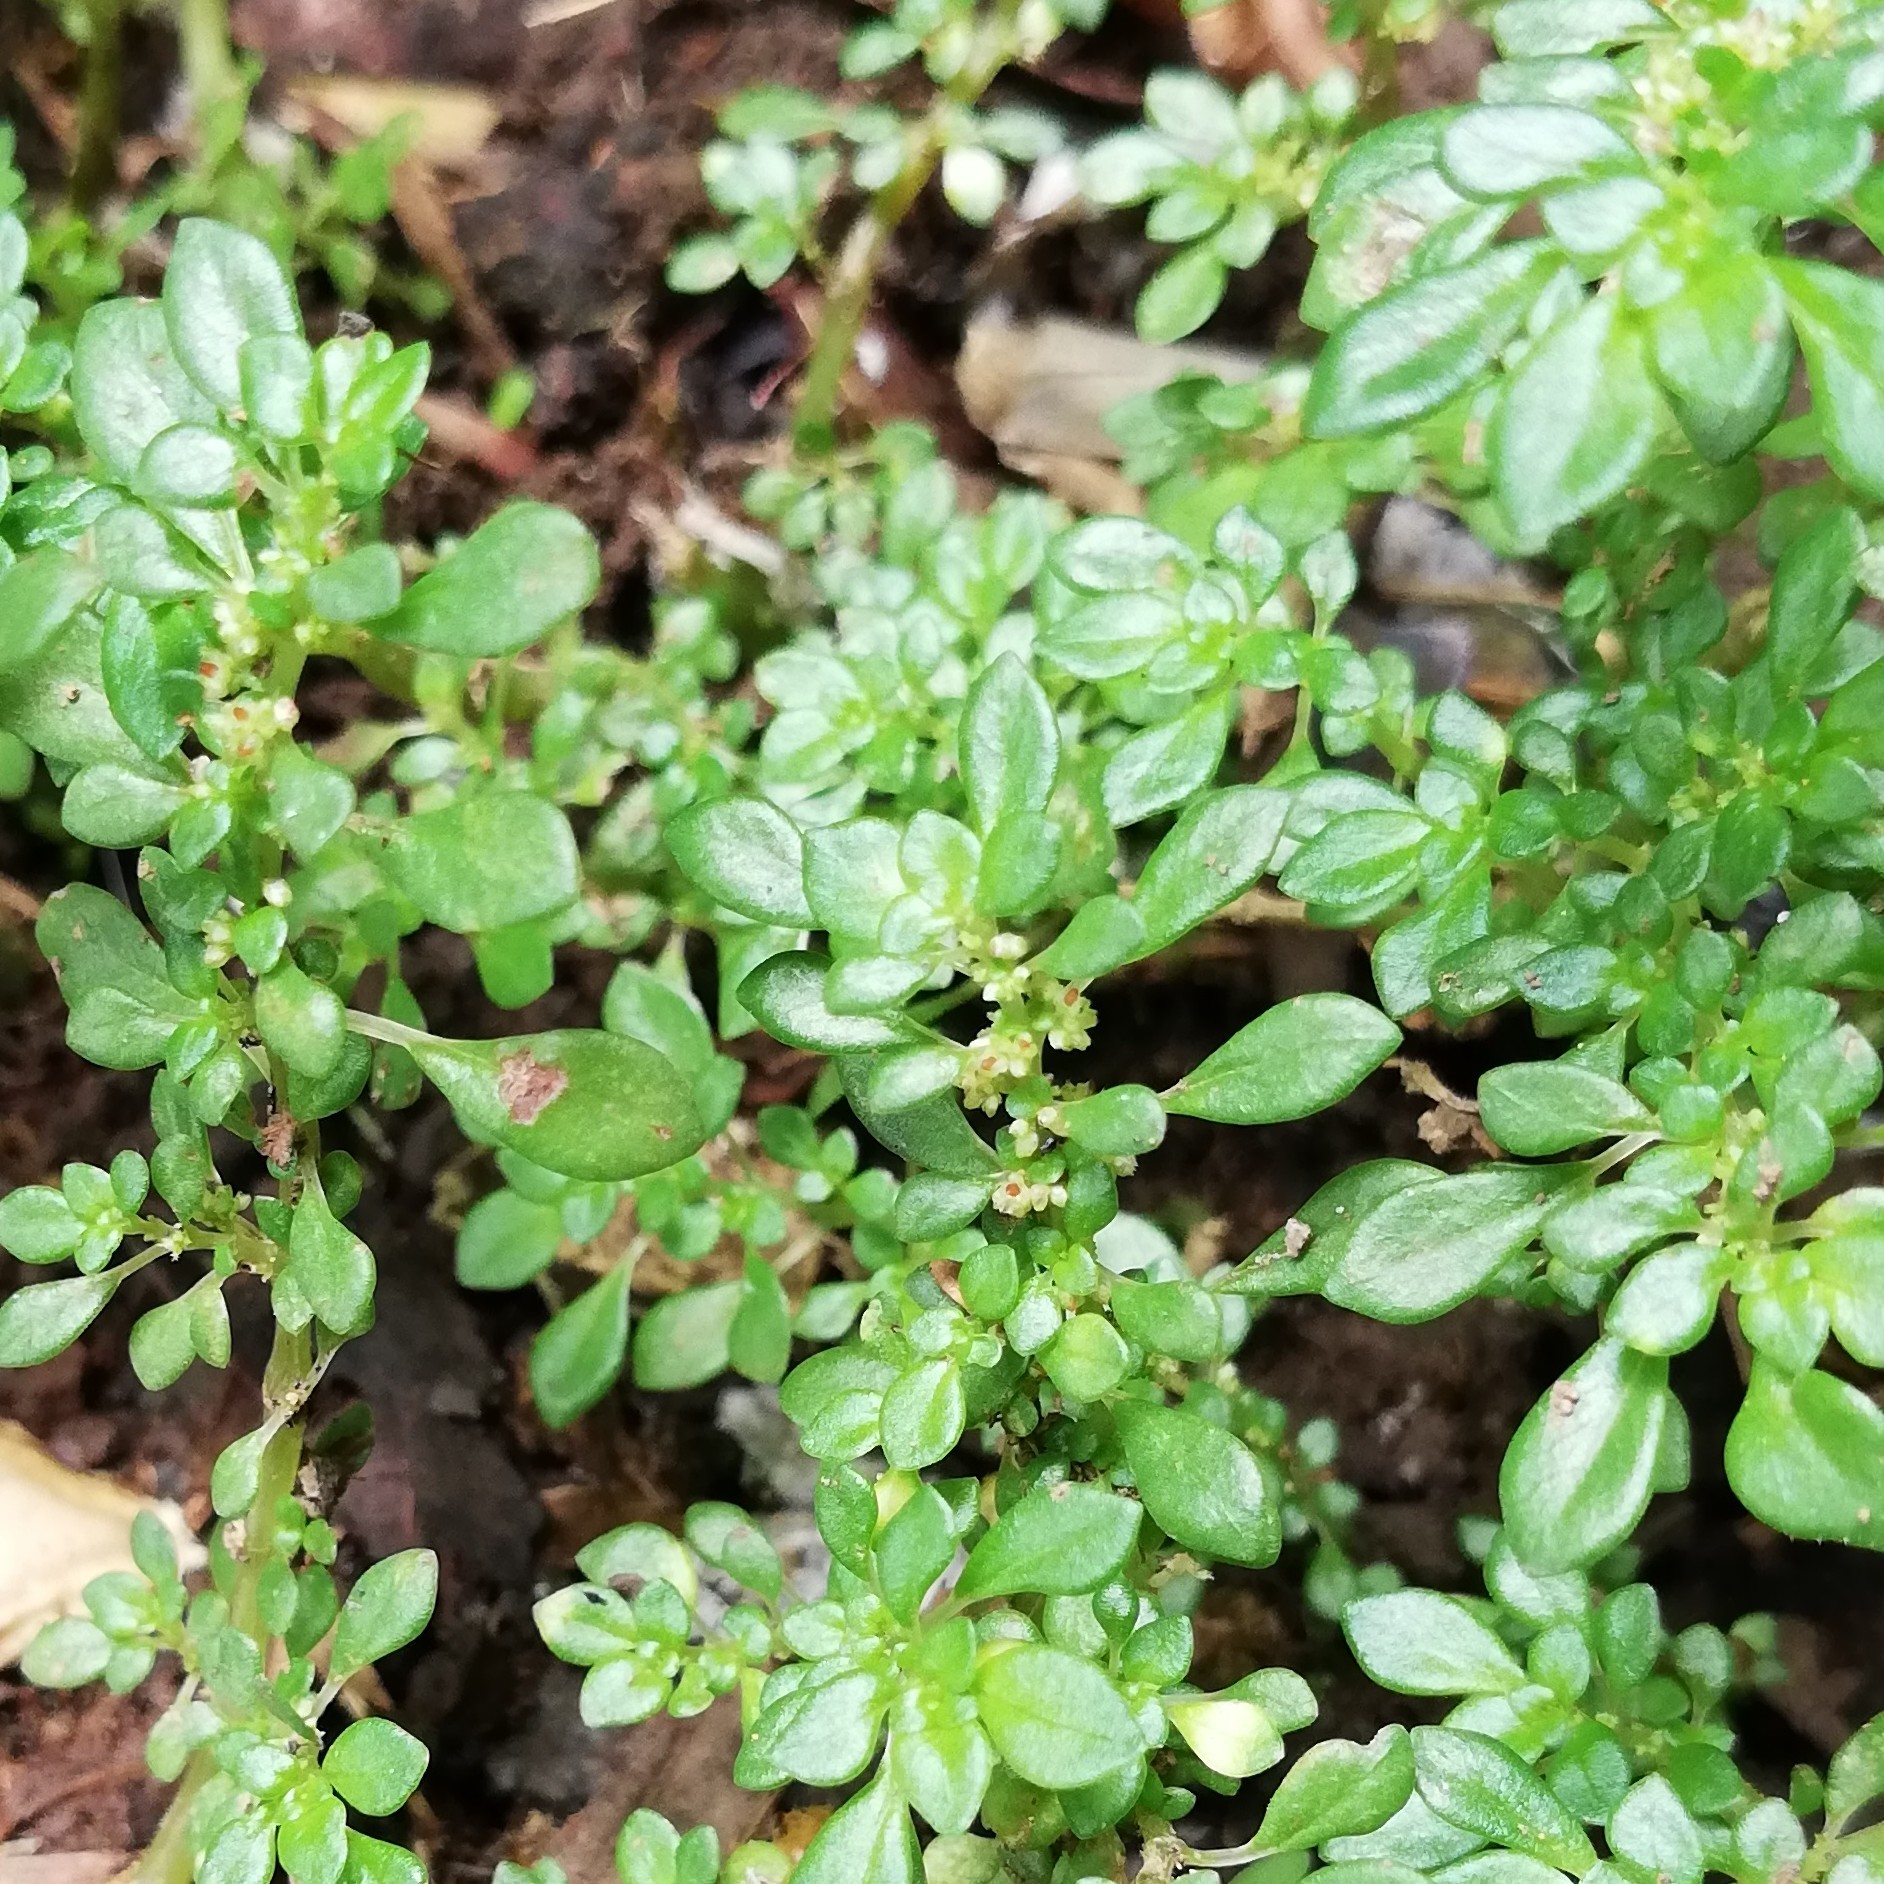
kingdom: Plantae
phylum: Tracheophyta
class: Magnoliopsida
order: Rosales
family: Urticaceae
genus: Pilea
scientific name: Pilea microphylla
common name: Artillery-plant
